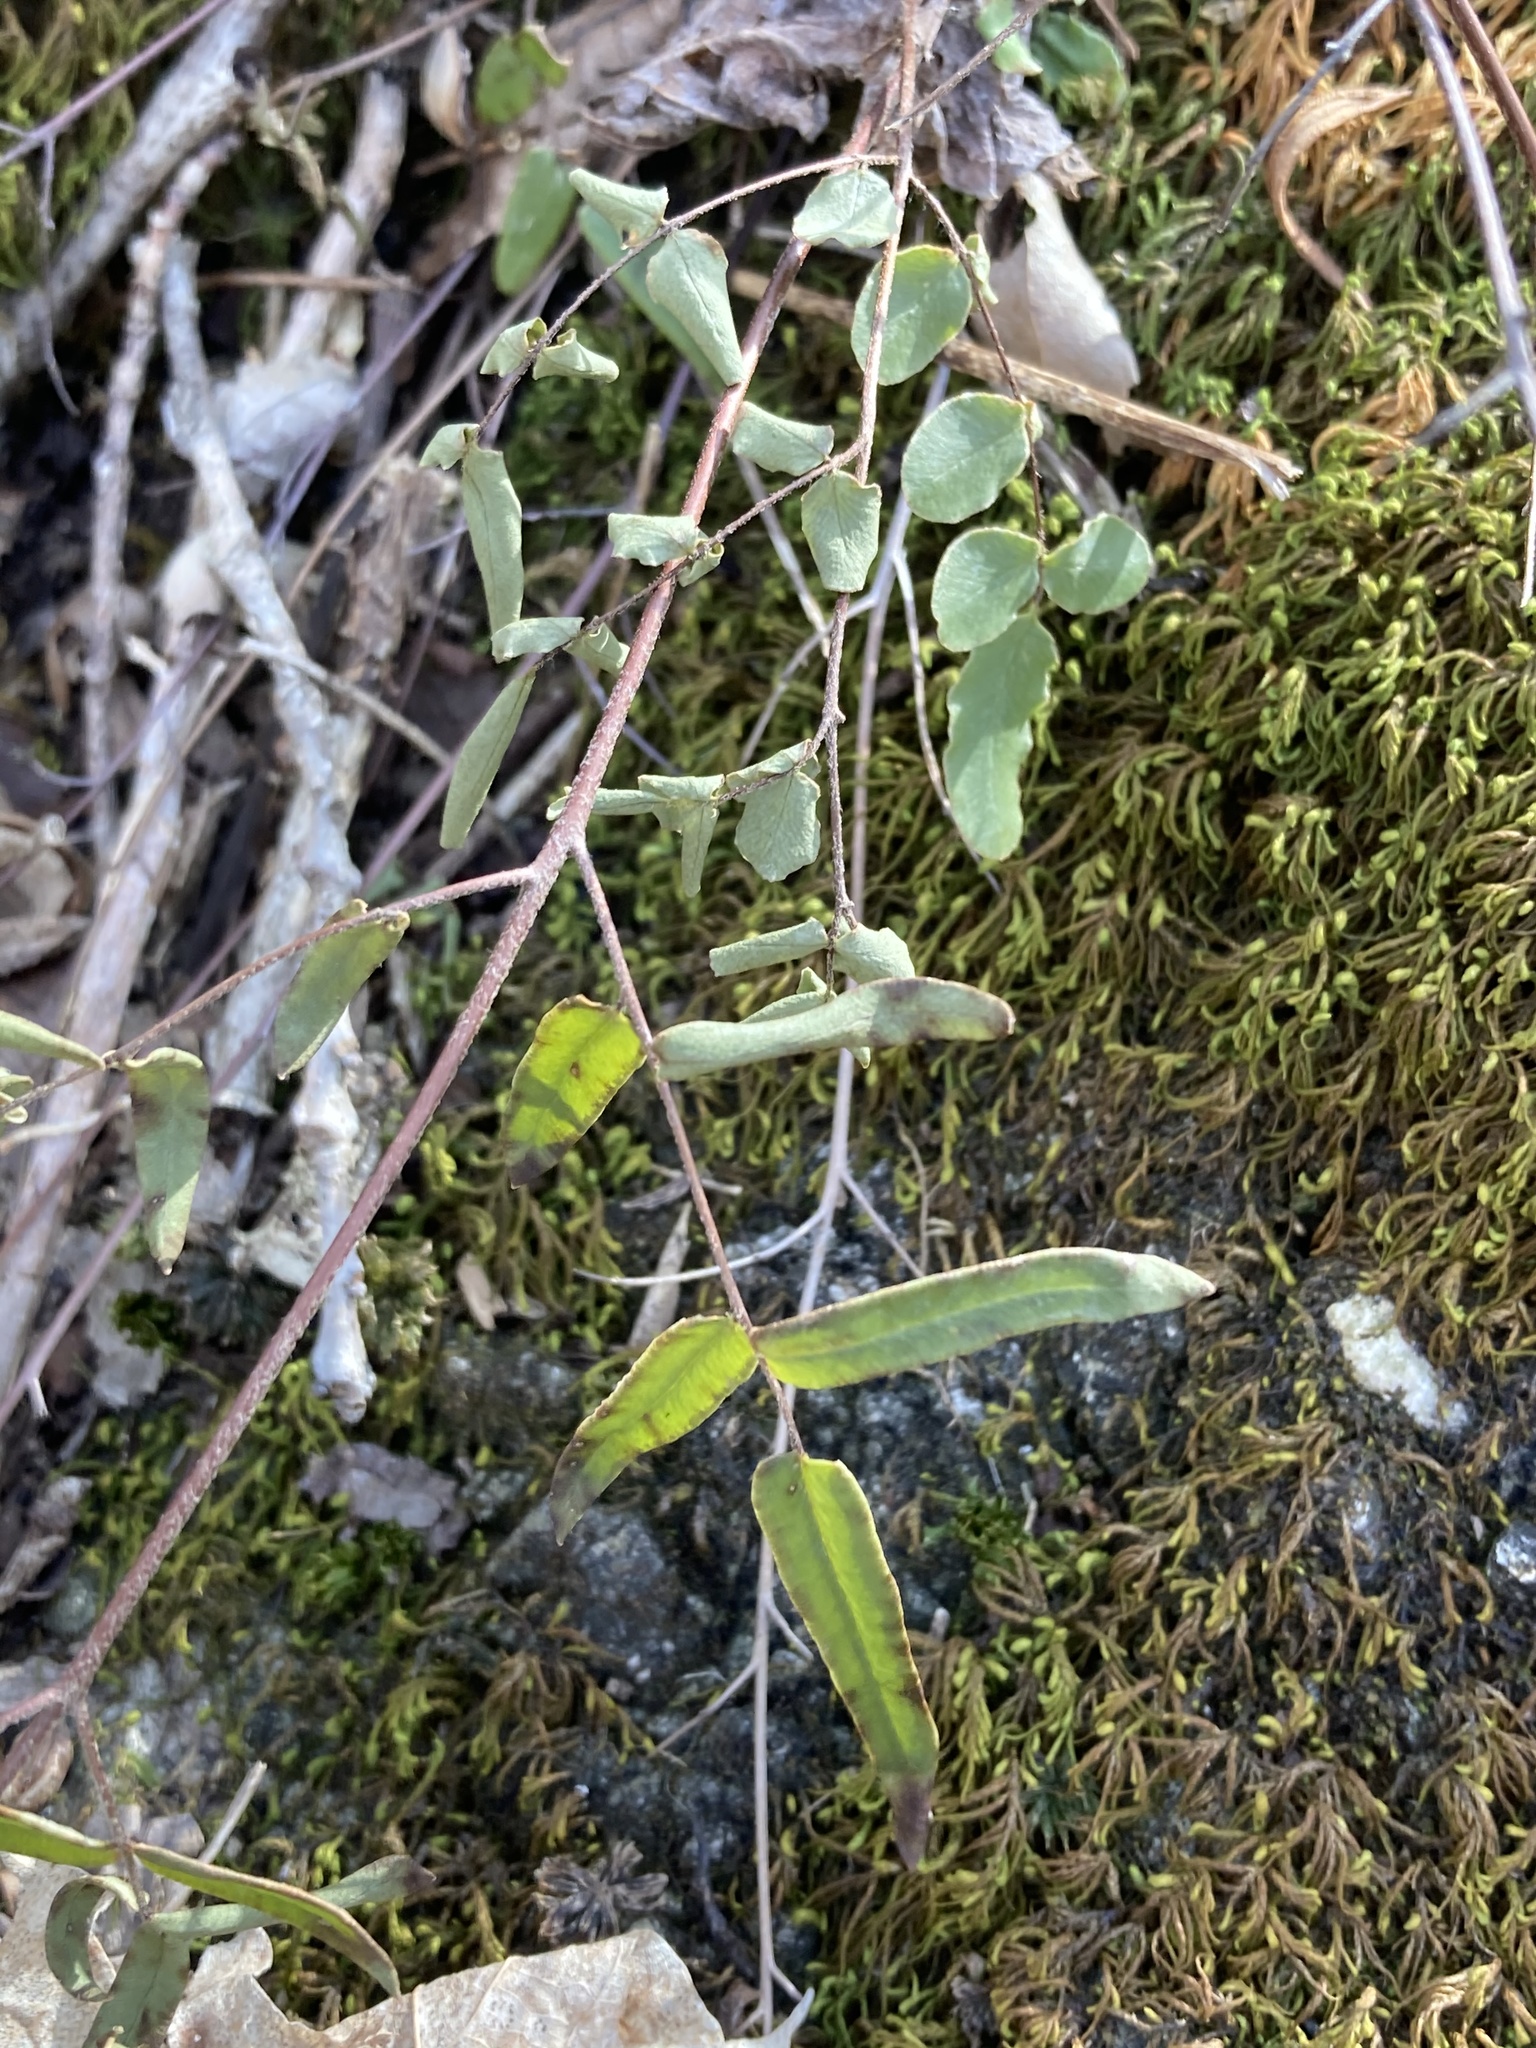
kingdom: Plantae
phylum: Tracheophyta
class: Polypodiopsida
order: Polypodiales
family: Pteridaceae
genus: Pellaea
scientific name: Pellaea atropurpurea
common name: Hairy cliffbrake
